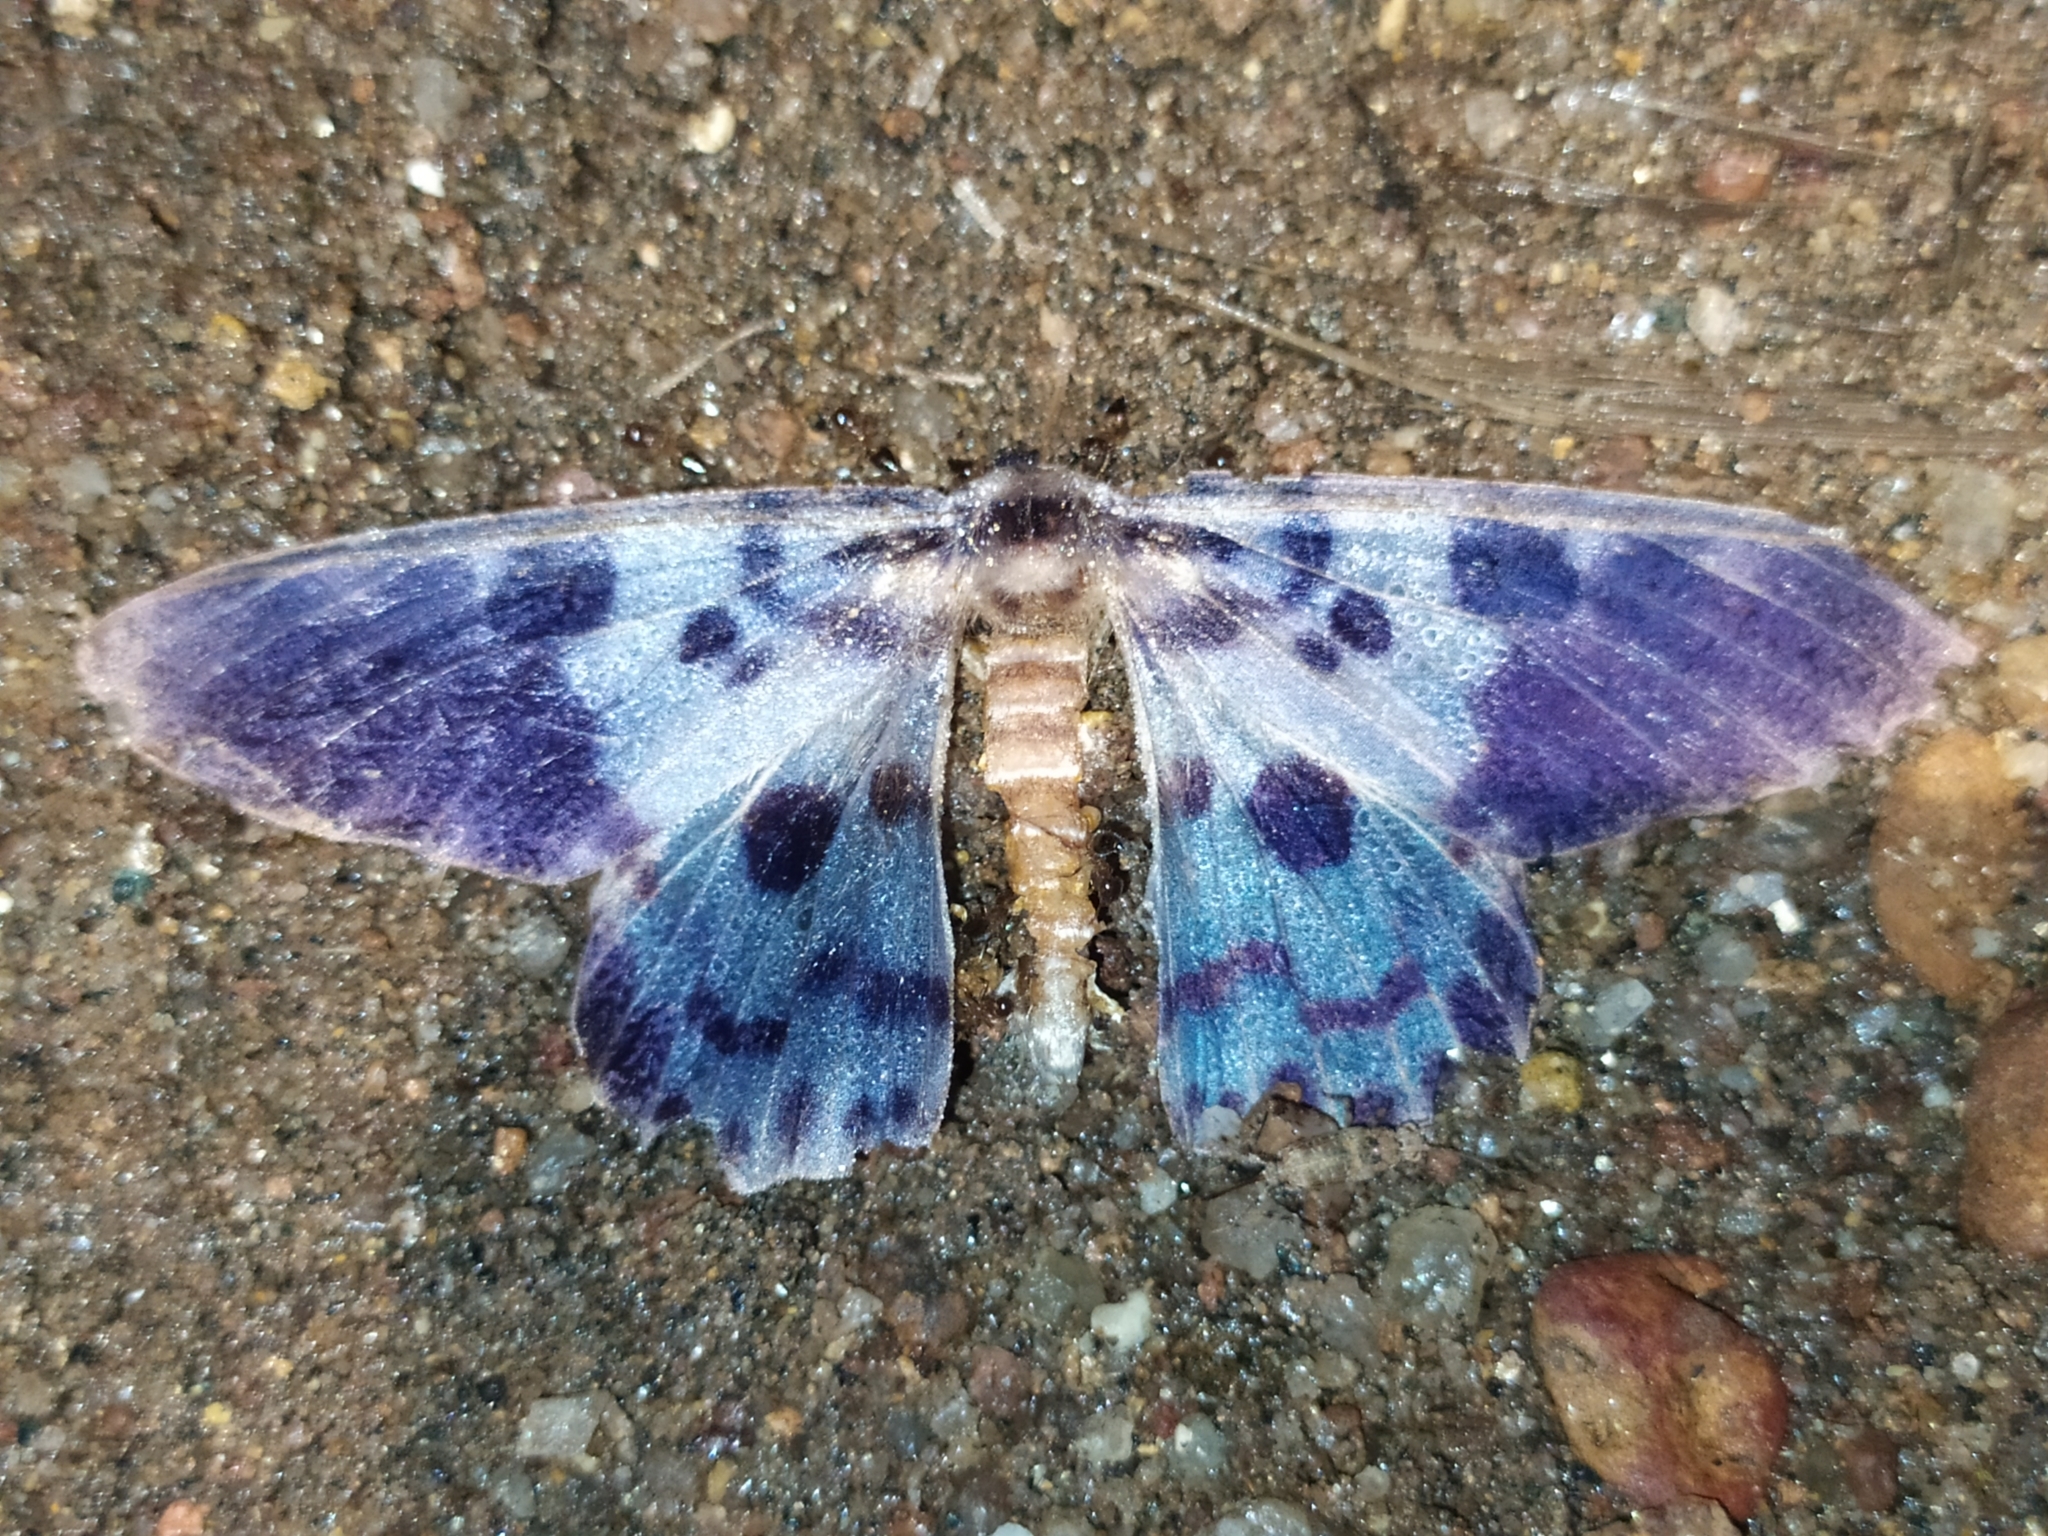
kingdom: Animalia
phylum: Arthropoda
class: Insecta
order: Lepidoptera
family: Geometridae
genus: Dysphania
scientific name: Dysphania percota
